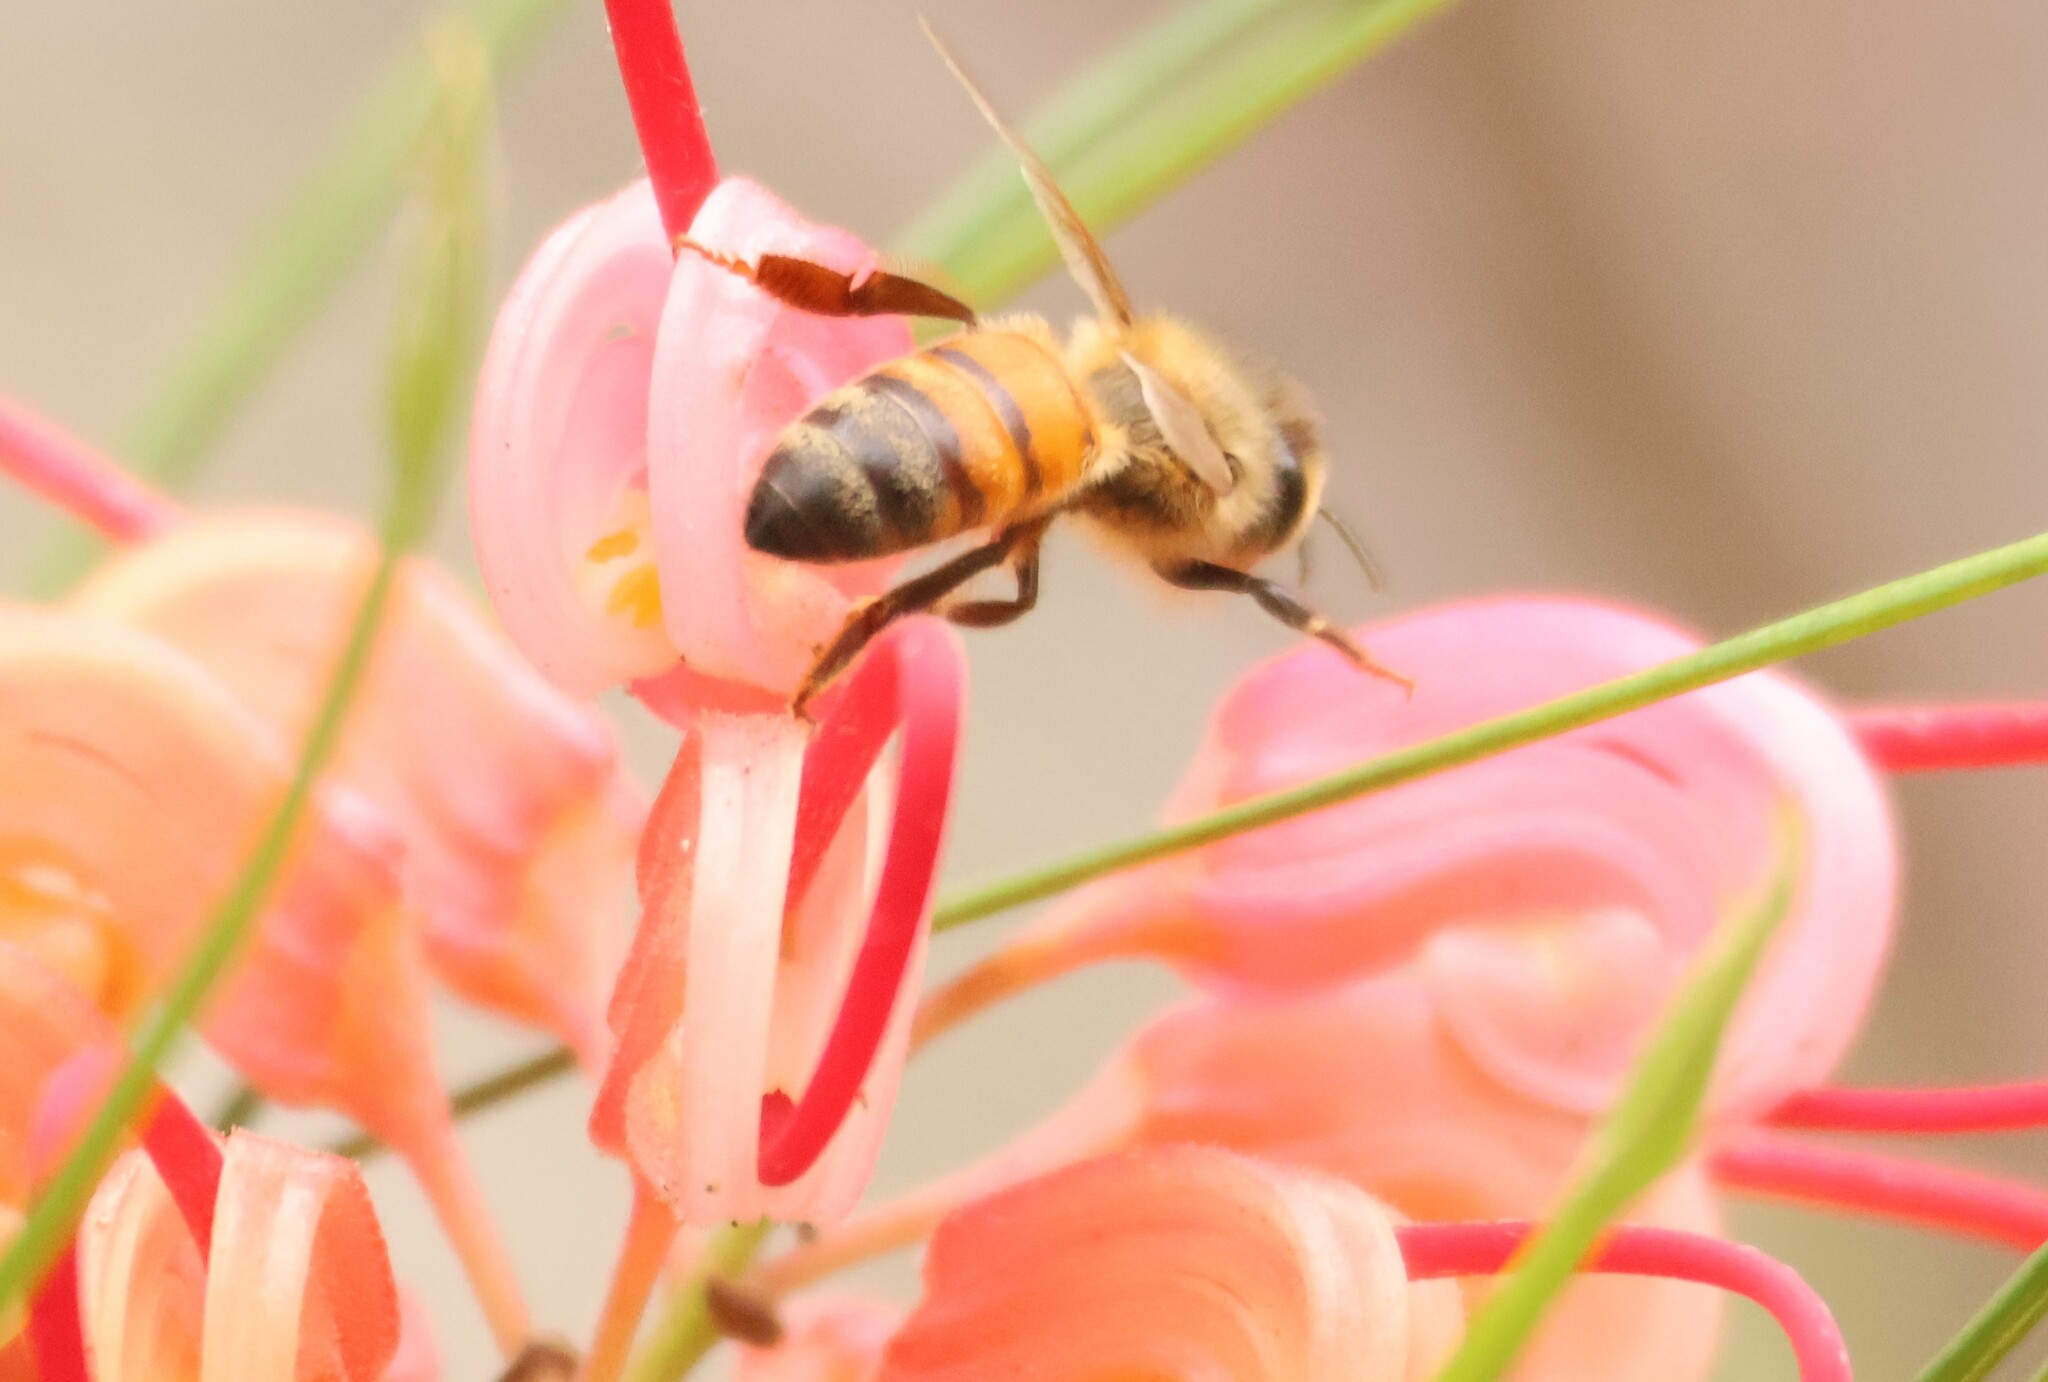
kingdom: Animalia
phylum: Arthropoda
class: Insecta
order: Hymenoptera
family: Apidae
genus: Apis
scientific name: Apis mellifera
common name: Honey bee
